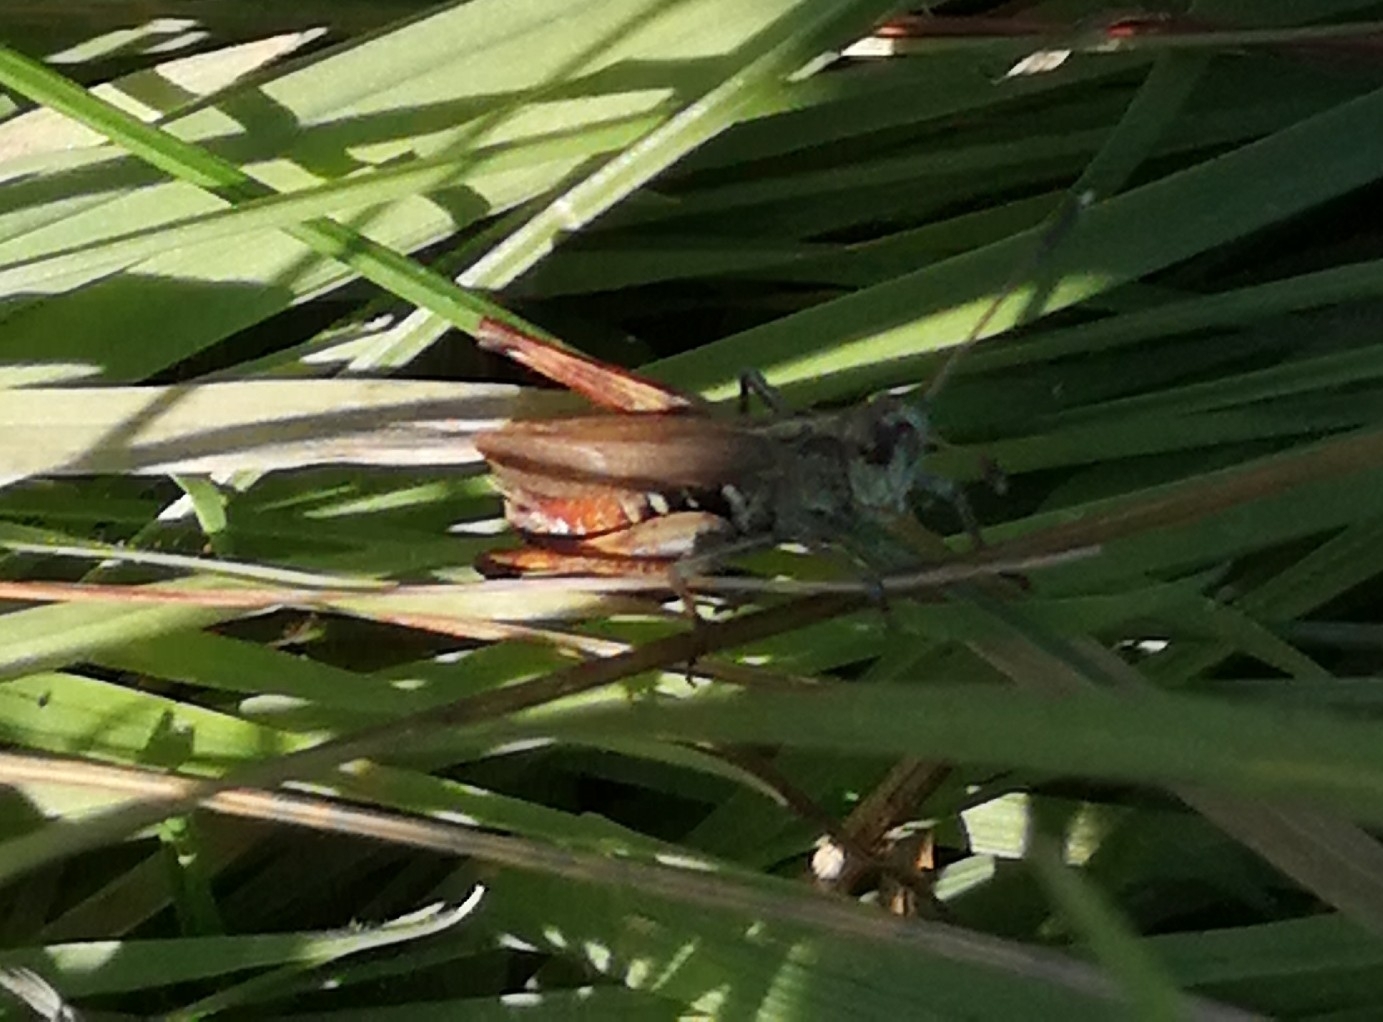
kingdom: Animalia
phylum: Arthropoda
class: Insecta
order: Orthoptera
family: Acrididae
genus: Gomphocerippus
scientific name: Gomphocerippus rufus
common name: Rufous grasshopper
